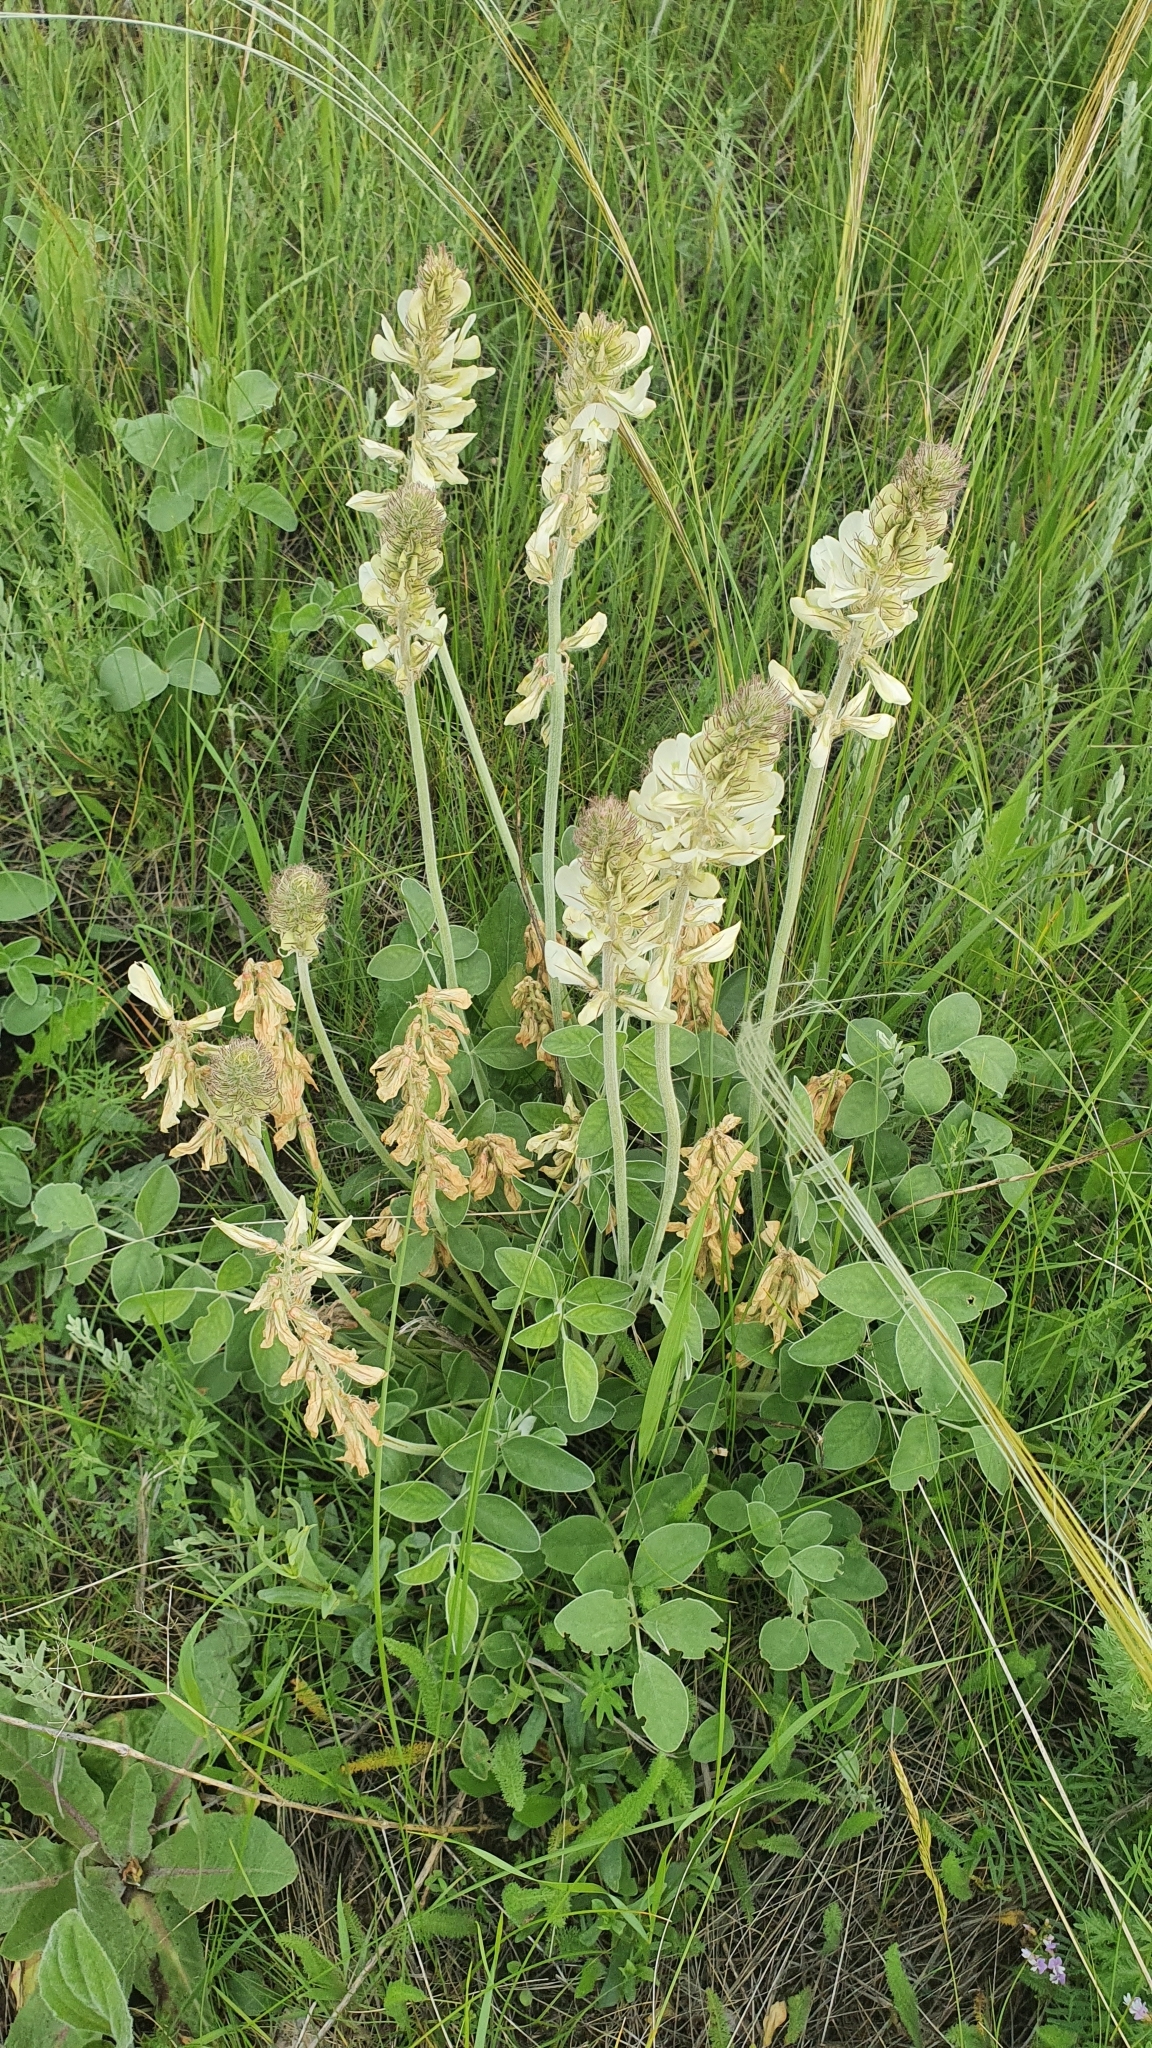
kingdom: Plantae
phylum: Tracheophyta
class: Magnoliopsida
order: Fabales
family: Fabaceae
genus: Hedysarum
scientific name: Hedysarum grandiflorum
